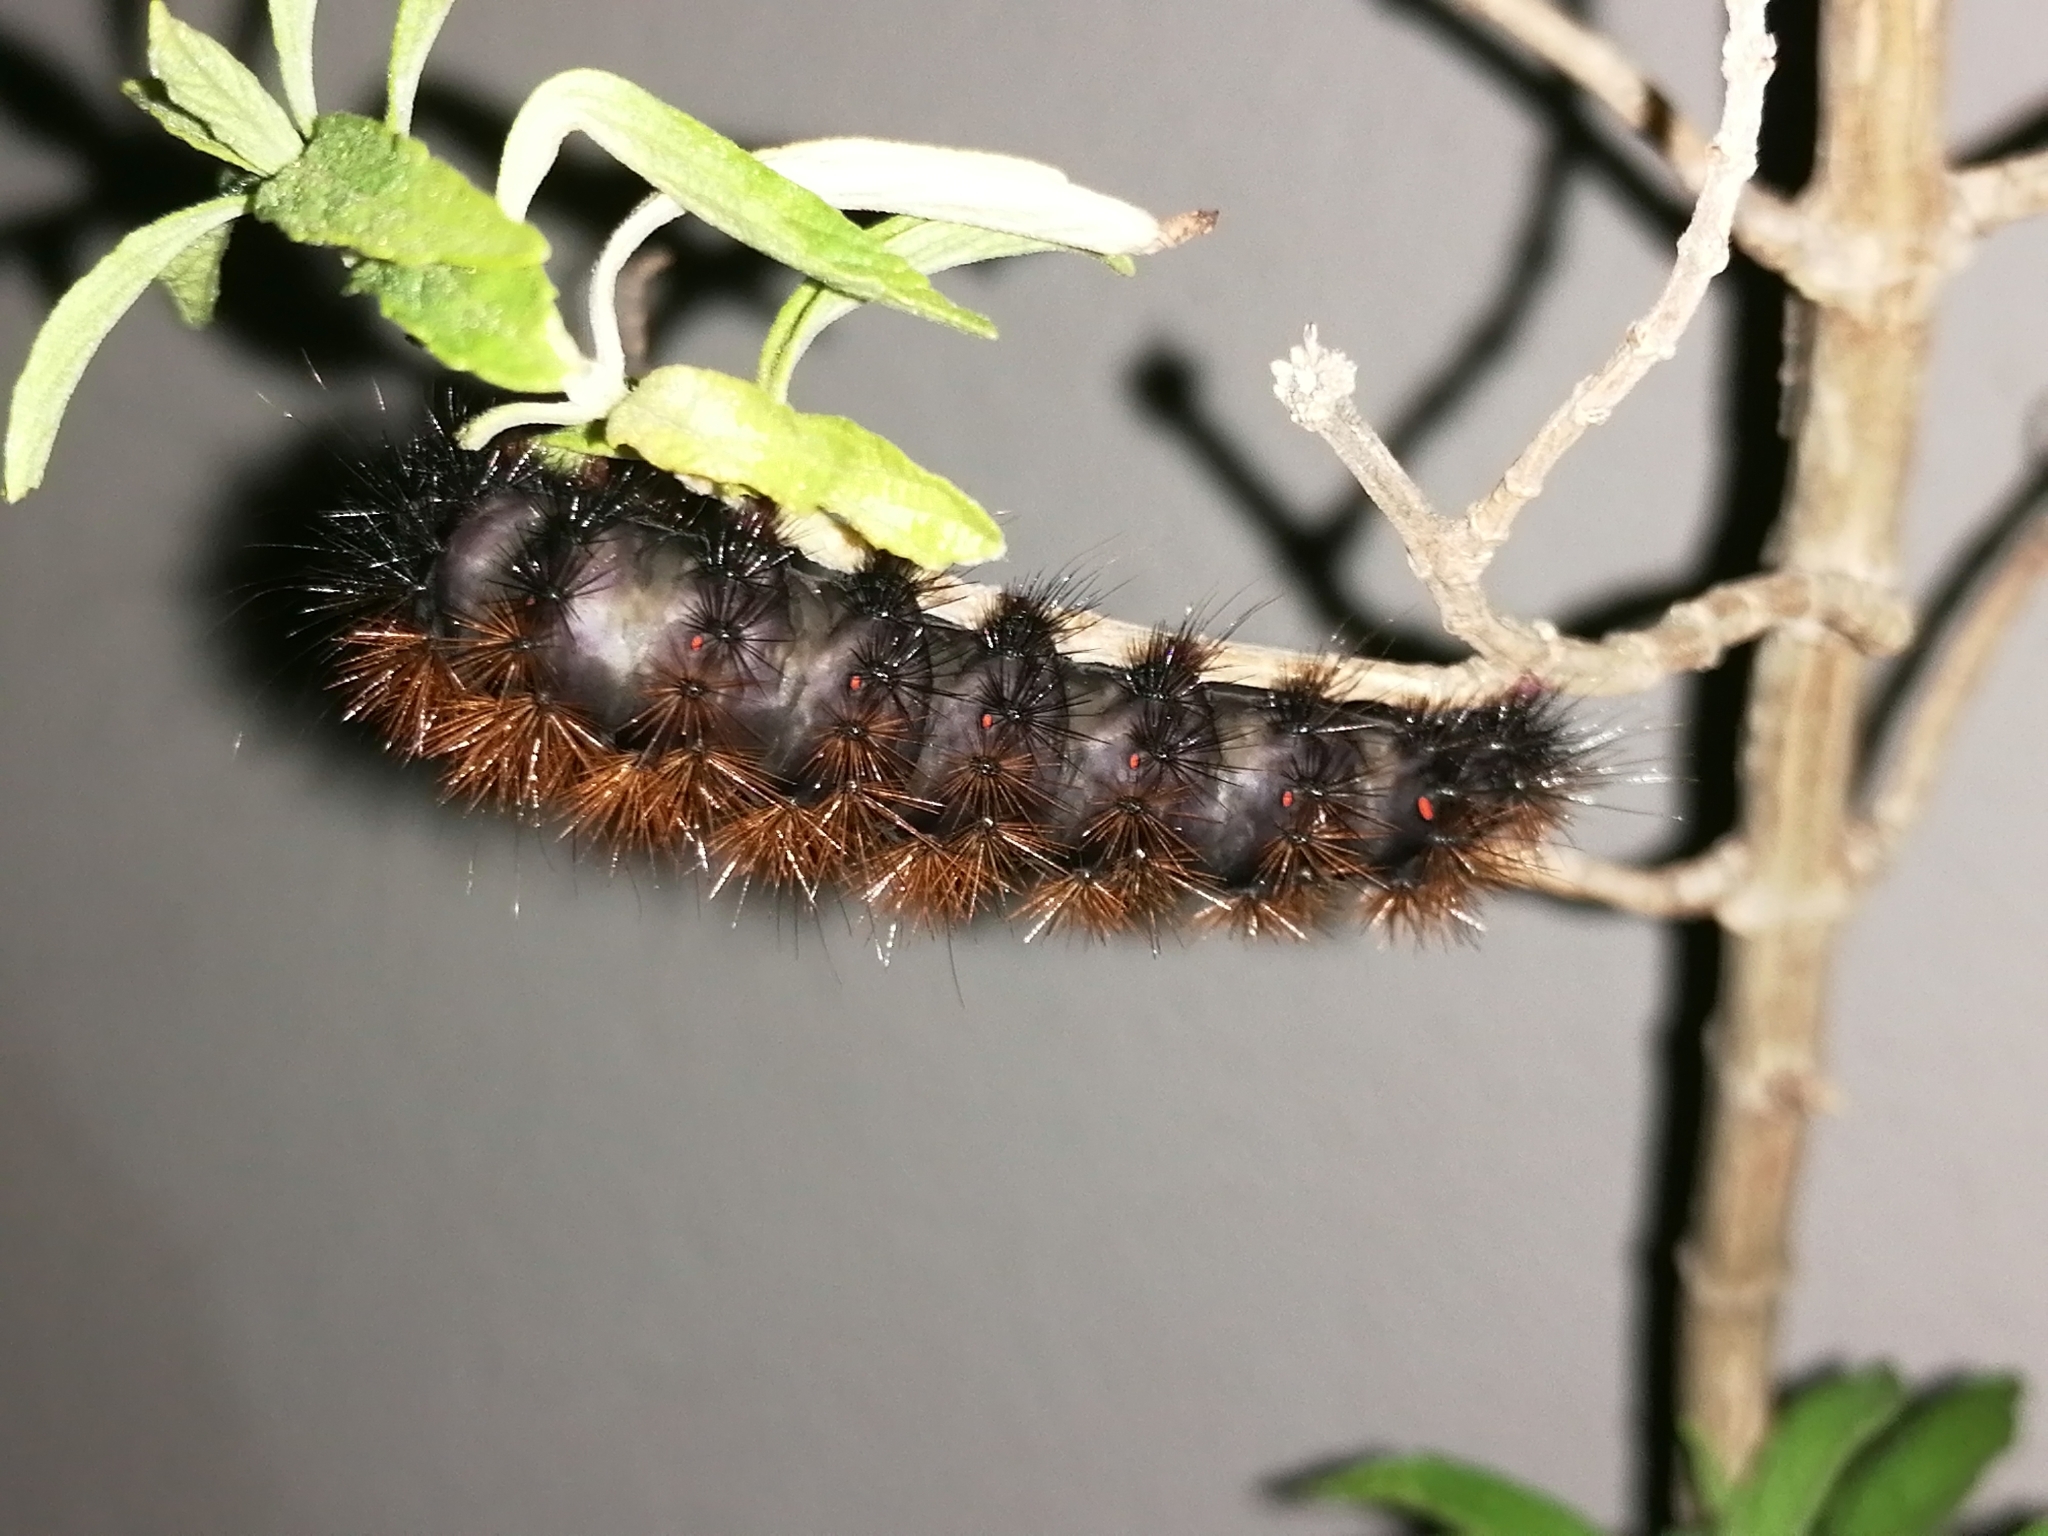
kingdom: Animalia
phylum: Arthropoda
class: Insecta
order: Lepidoptera
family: Erebidae
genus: Rhodogastria
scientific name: Rhodogastria amasis
